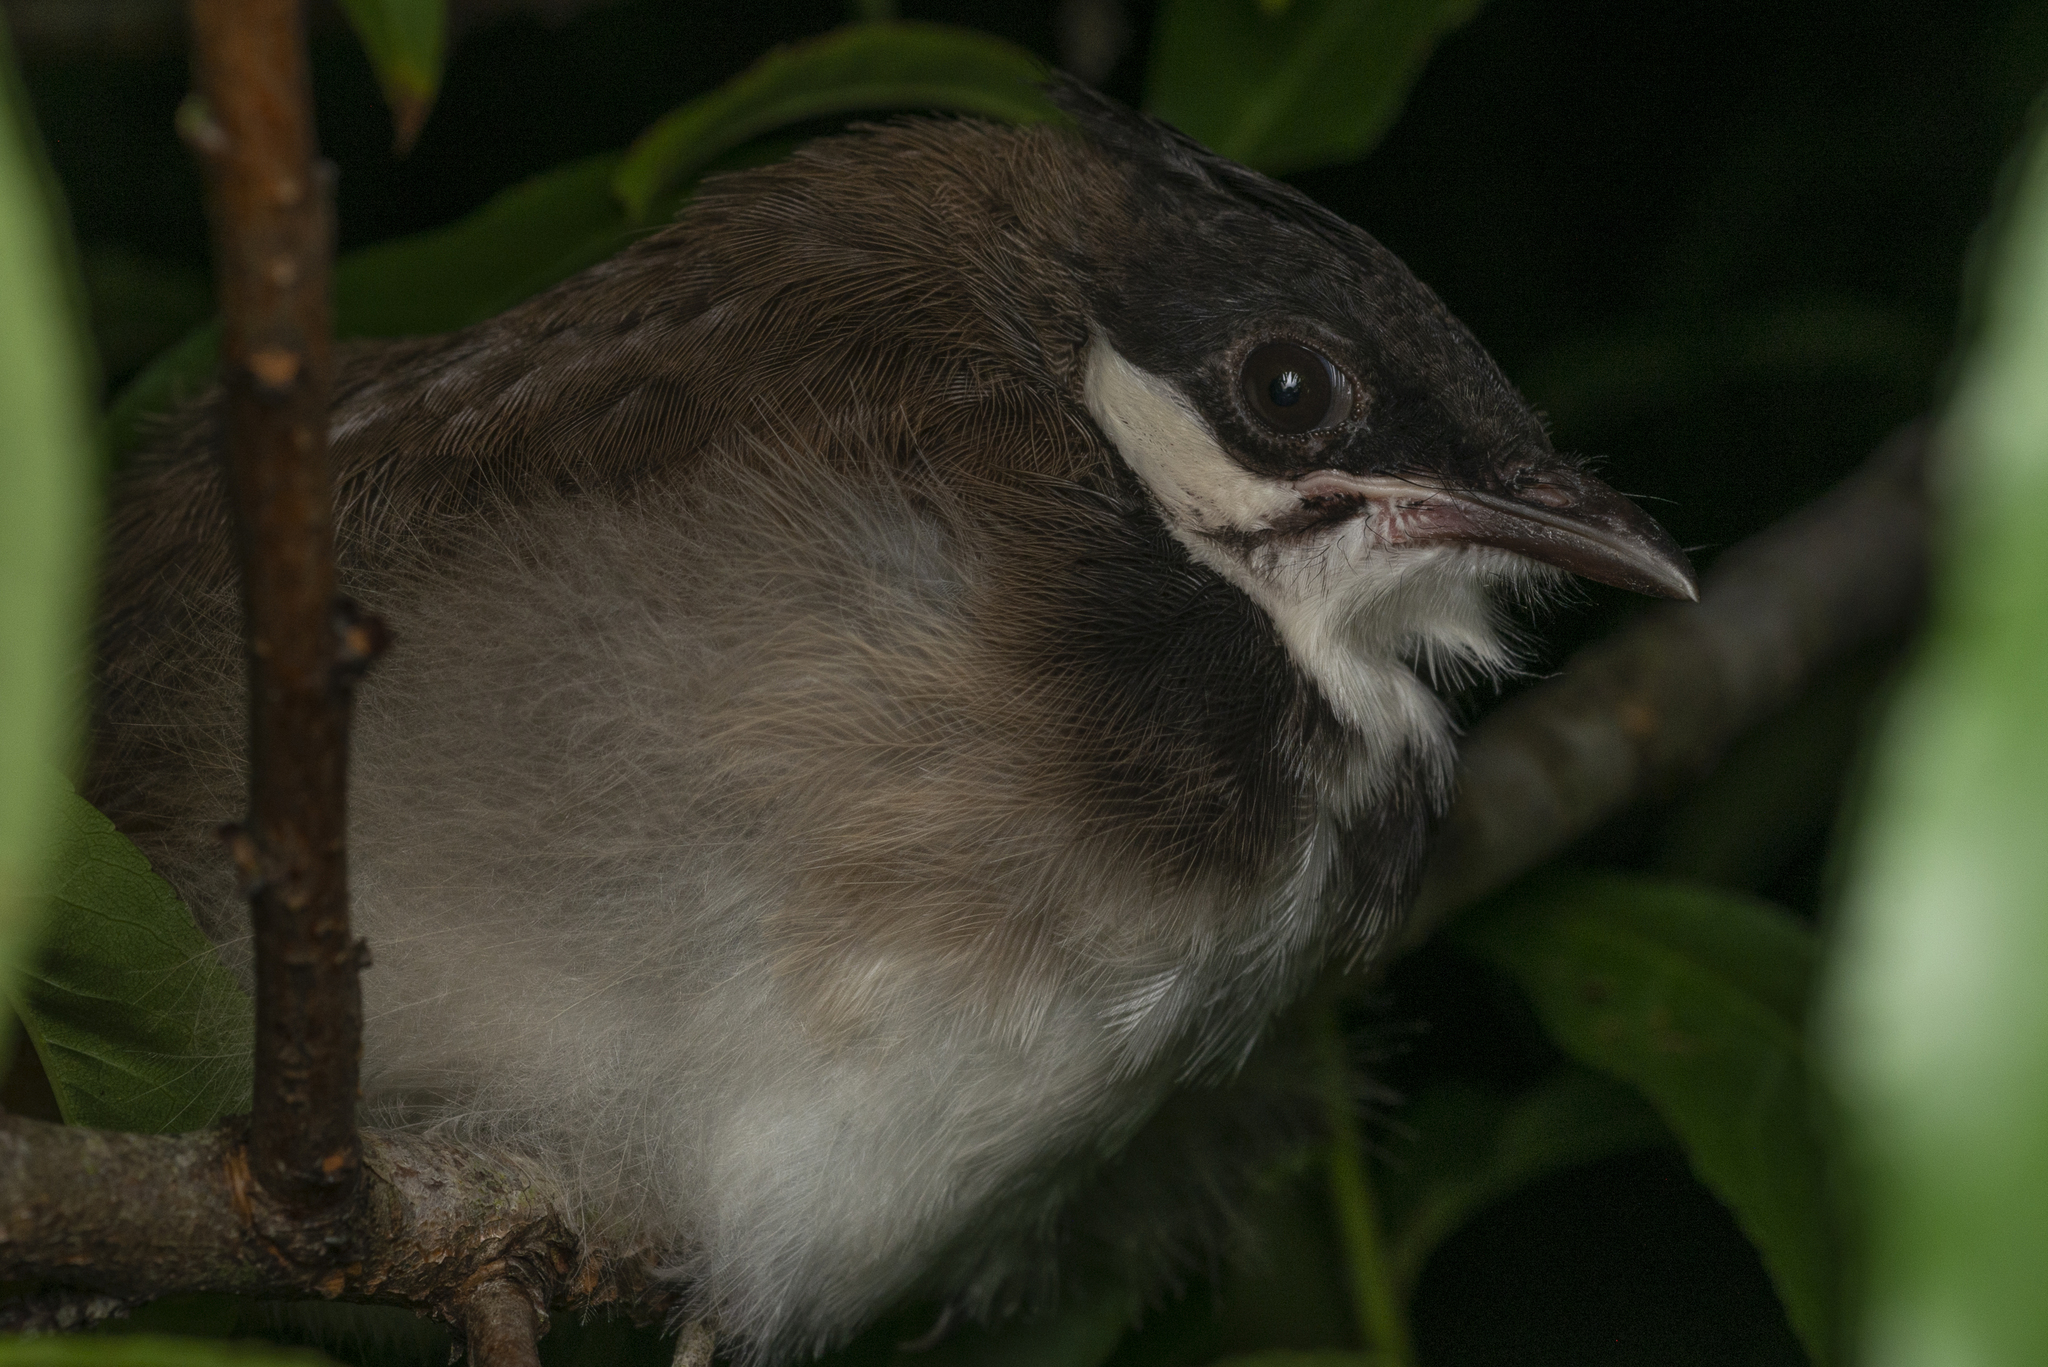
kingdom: Animalia
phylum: Chordata
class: Aves
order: Passeriformes
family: Pycnonotidae
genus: Pycnonotus
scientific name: Pycnonotus jocosus
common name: Red-whiskered bulbul
